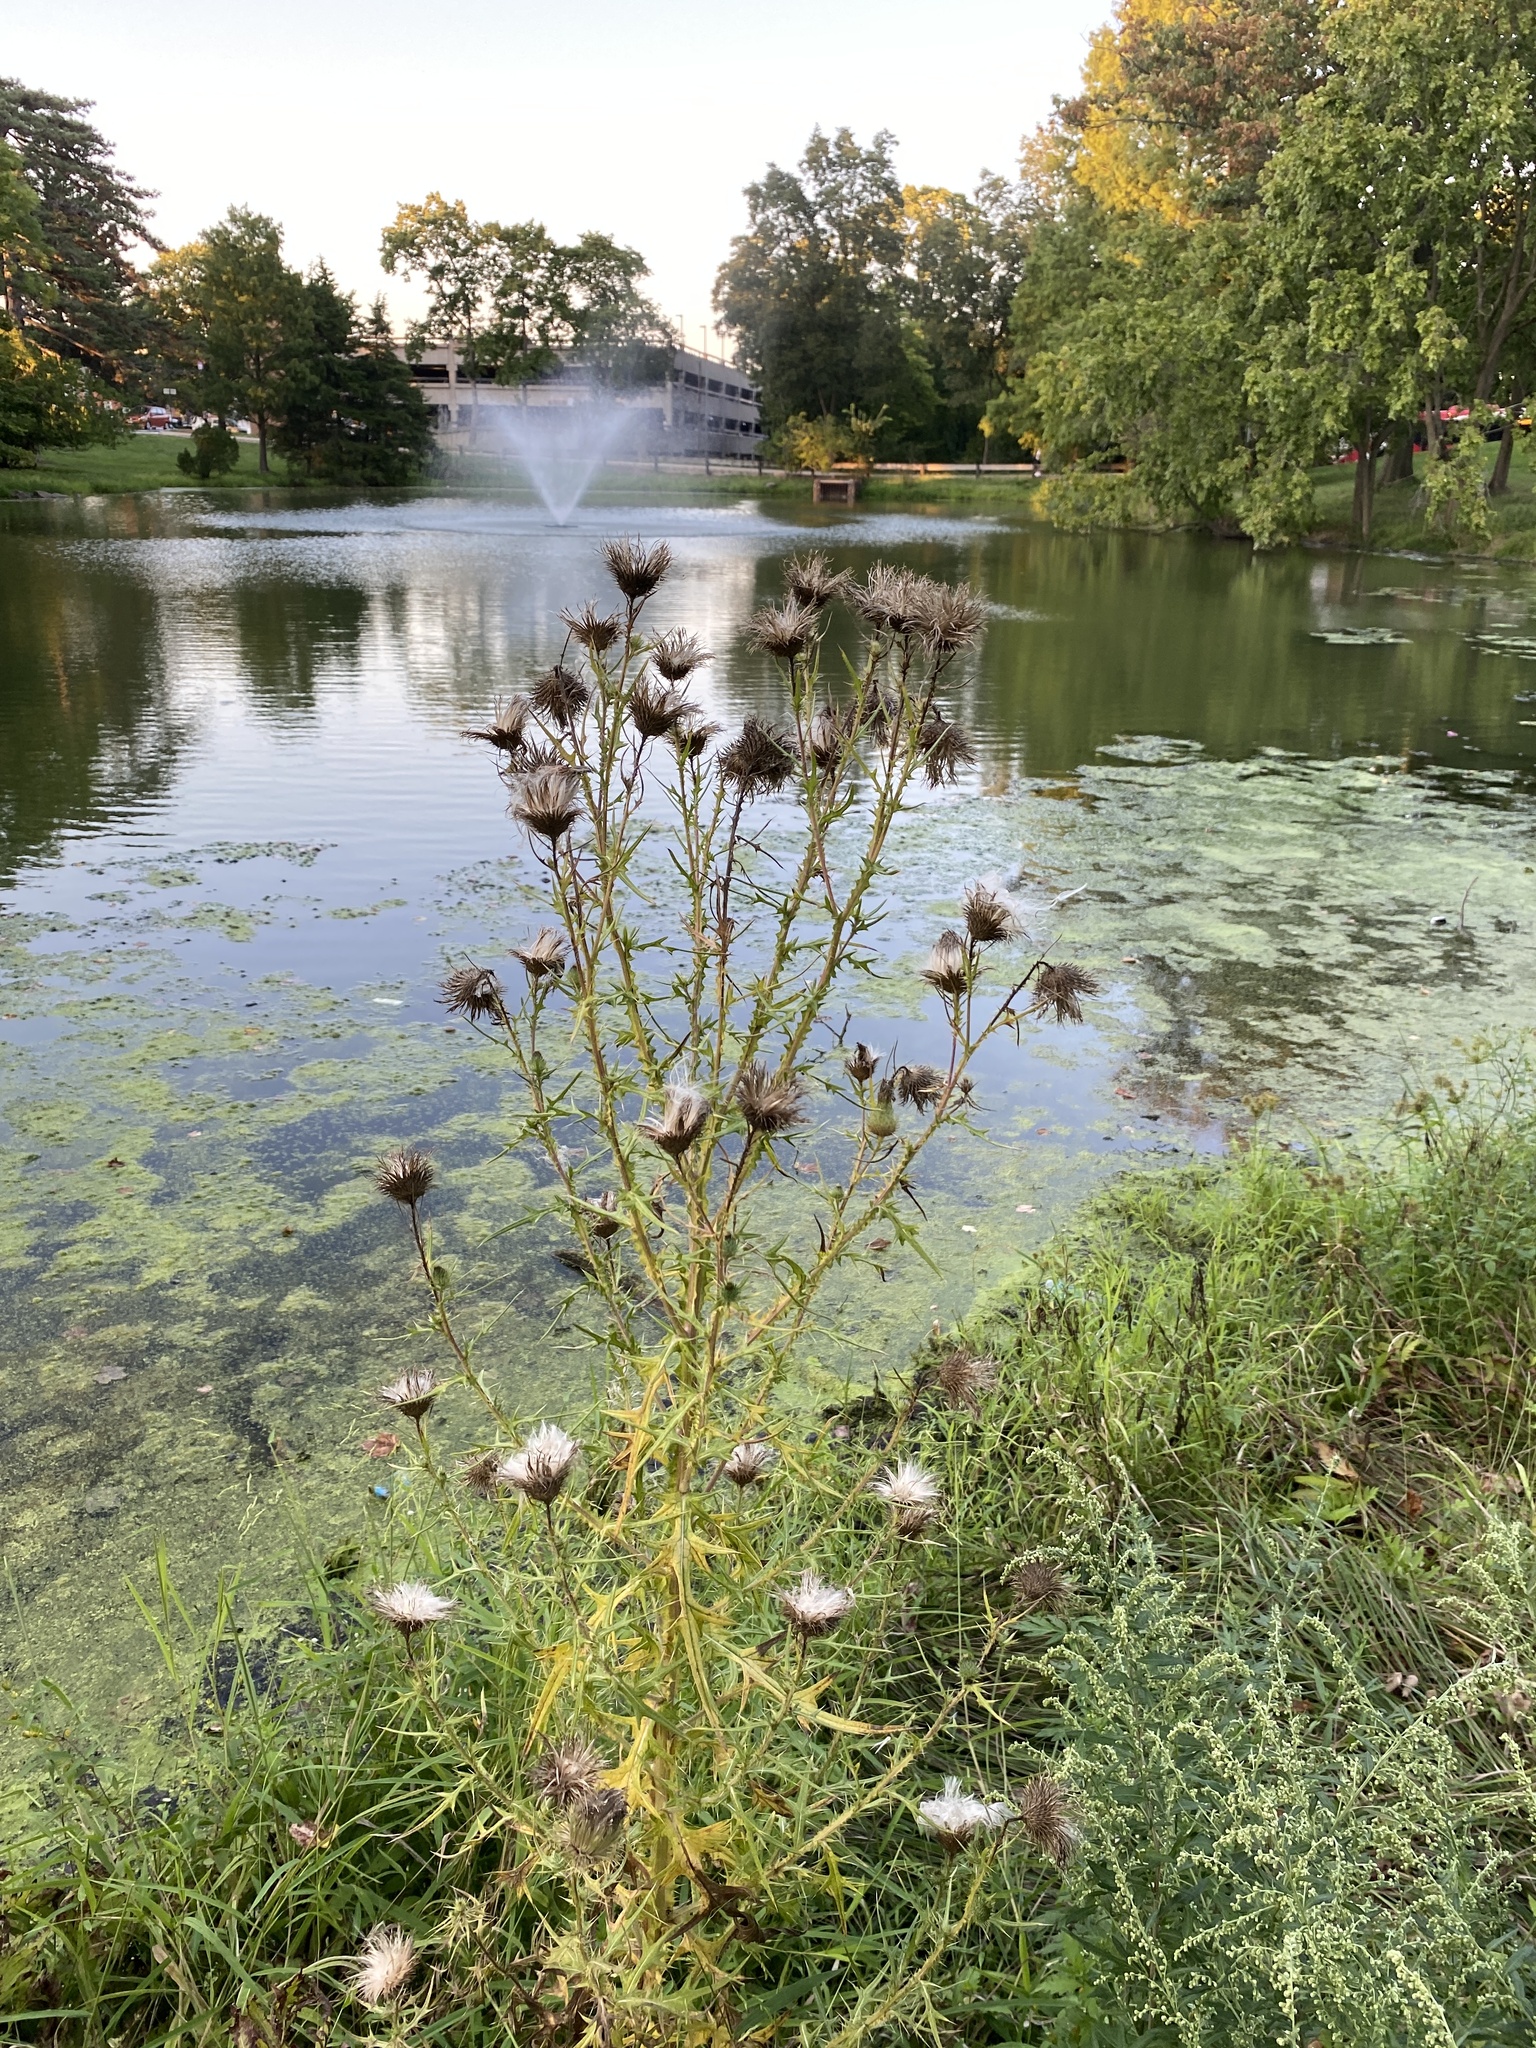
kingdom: Plantae
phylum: Tracheophyta
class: Magnoliopsida
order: Asterales
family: Asteraceae
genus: Cirsium
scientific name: Cirsium vulgare
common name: Bull thistle
